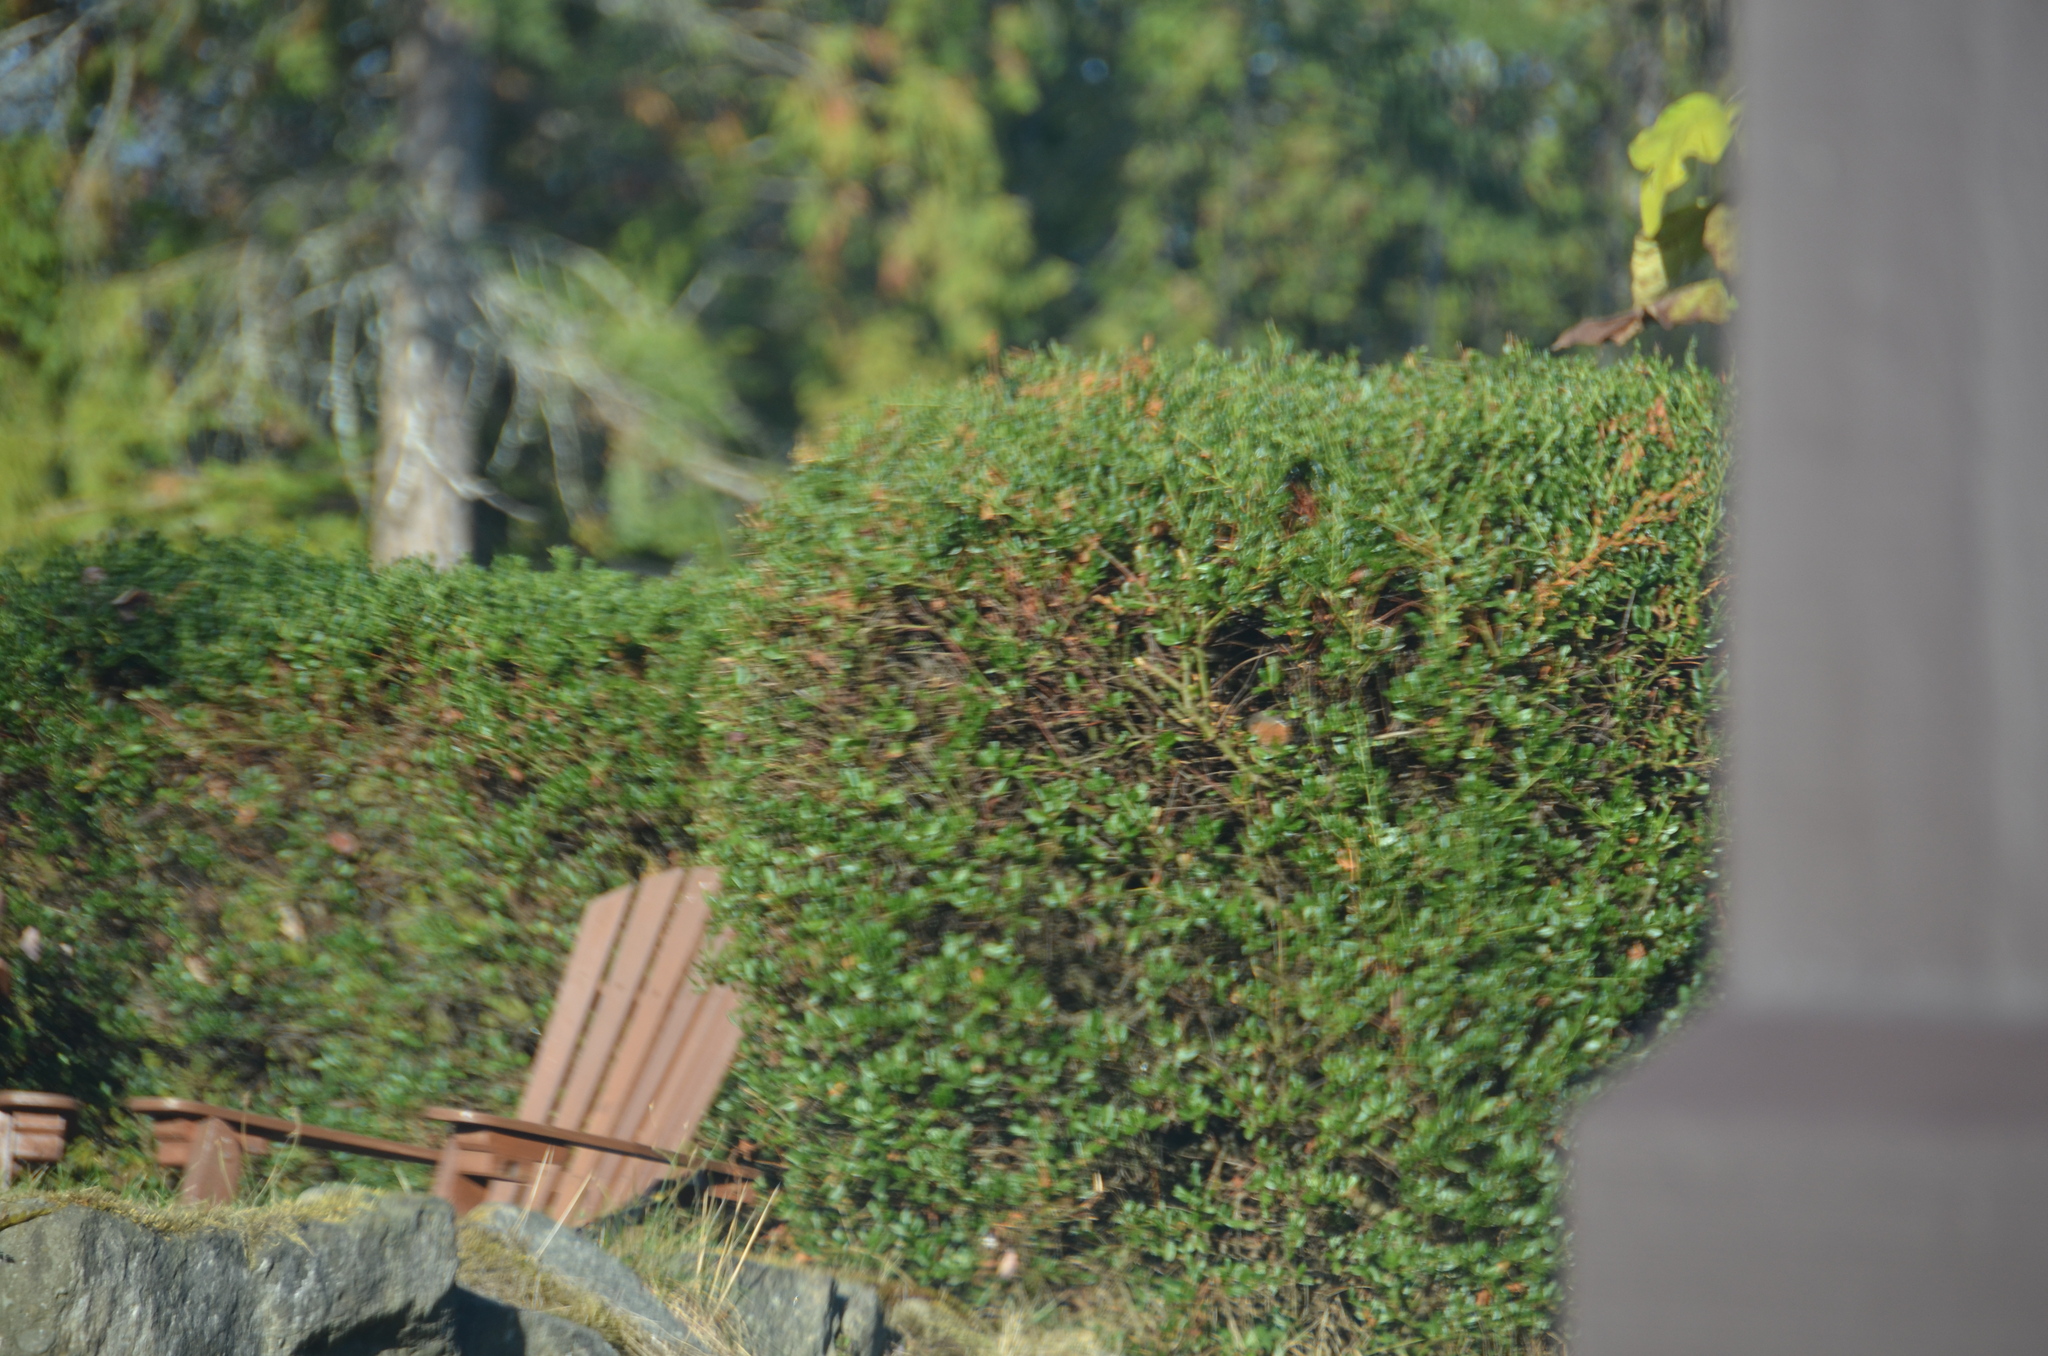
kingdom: Animalia
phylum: Chordata
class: Aves
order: Passeriformes
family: Passerellidae
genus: Pipilo
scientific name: Pipilo maculatus
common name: Spotted towhee
